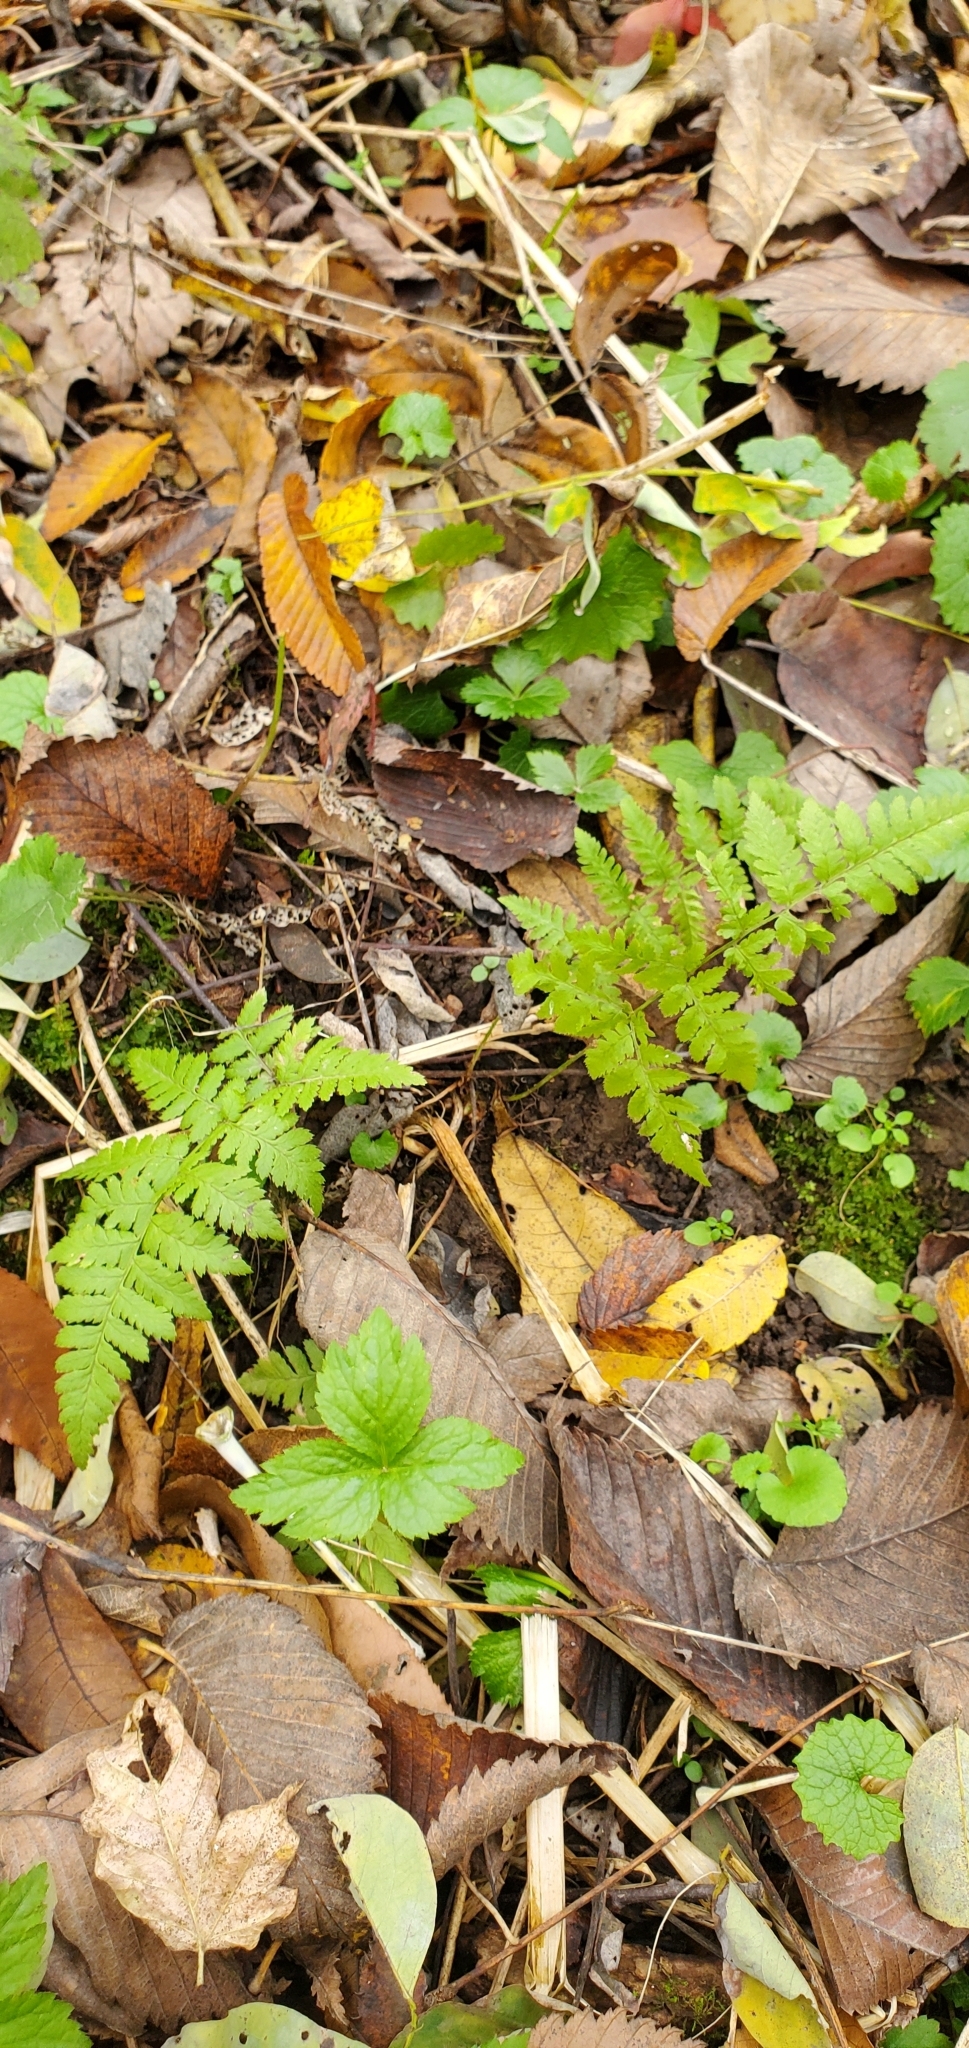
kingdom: Plantae
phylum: Tracheophyta
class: Polypodiopsida
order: Polypodiales
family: Dryopteridaceae
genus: Dryopteris
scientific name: Dryopteris
